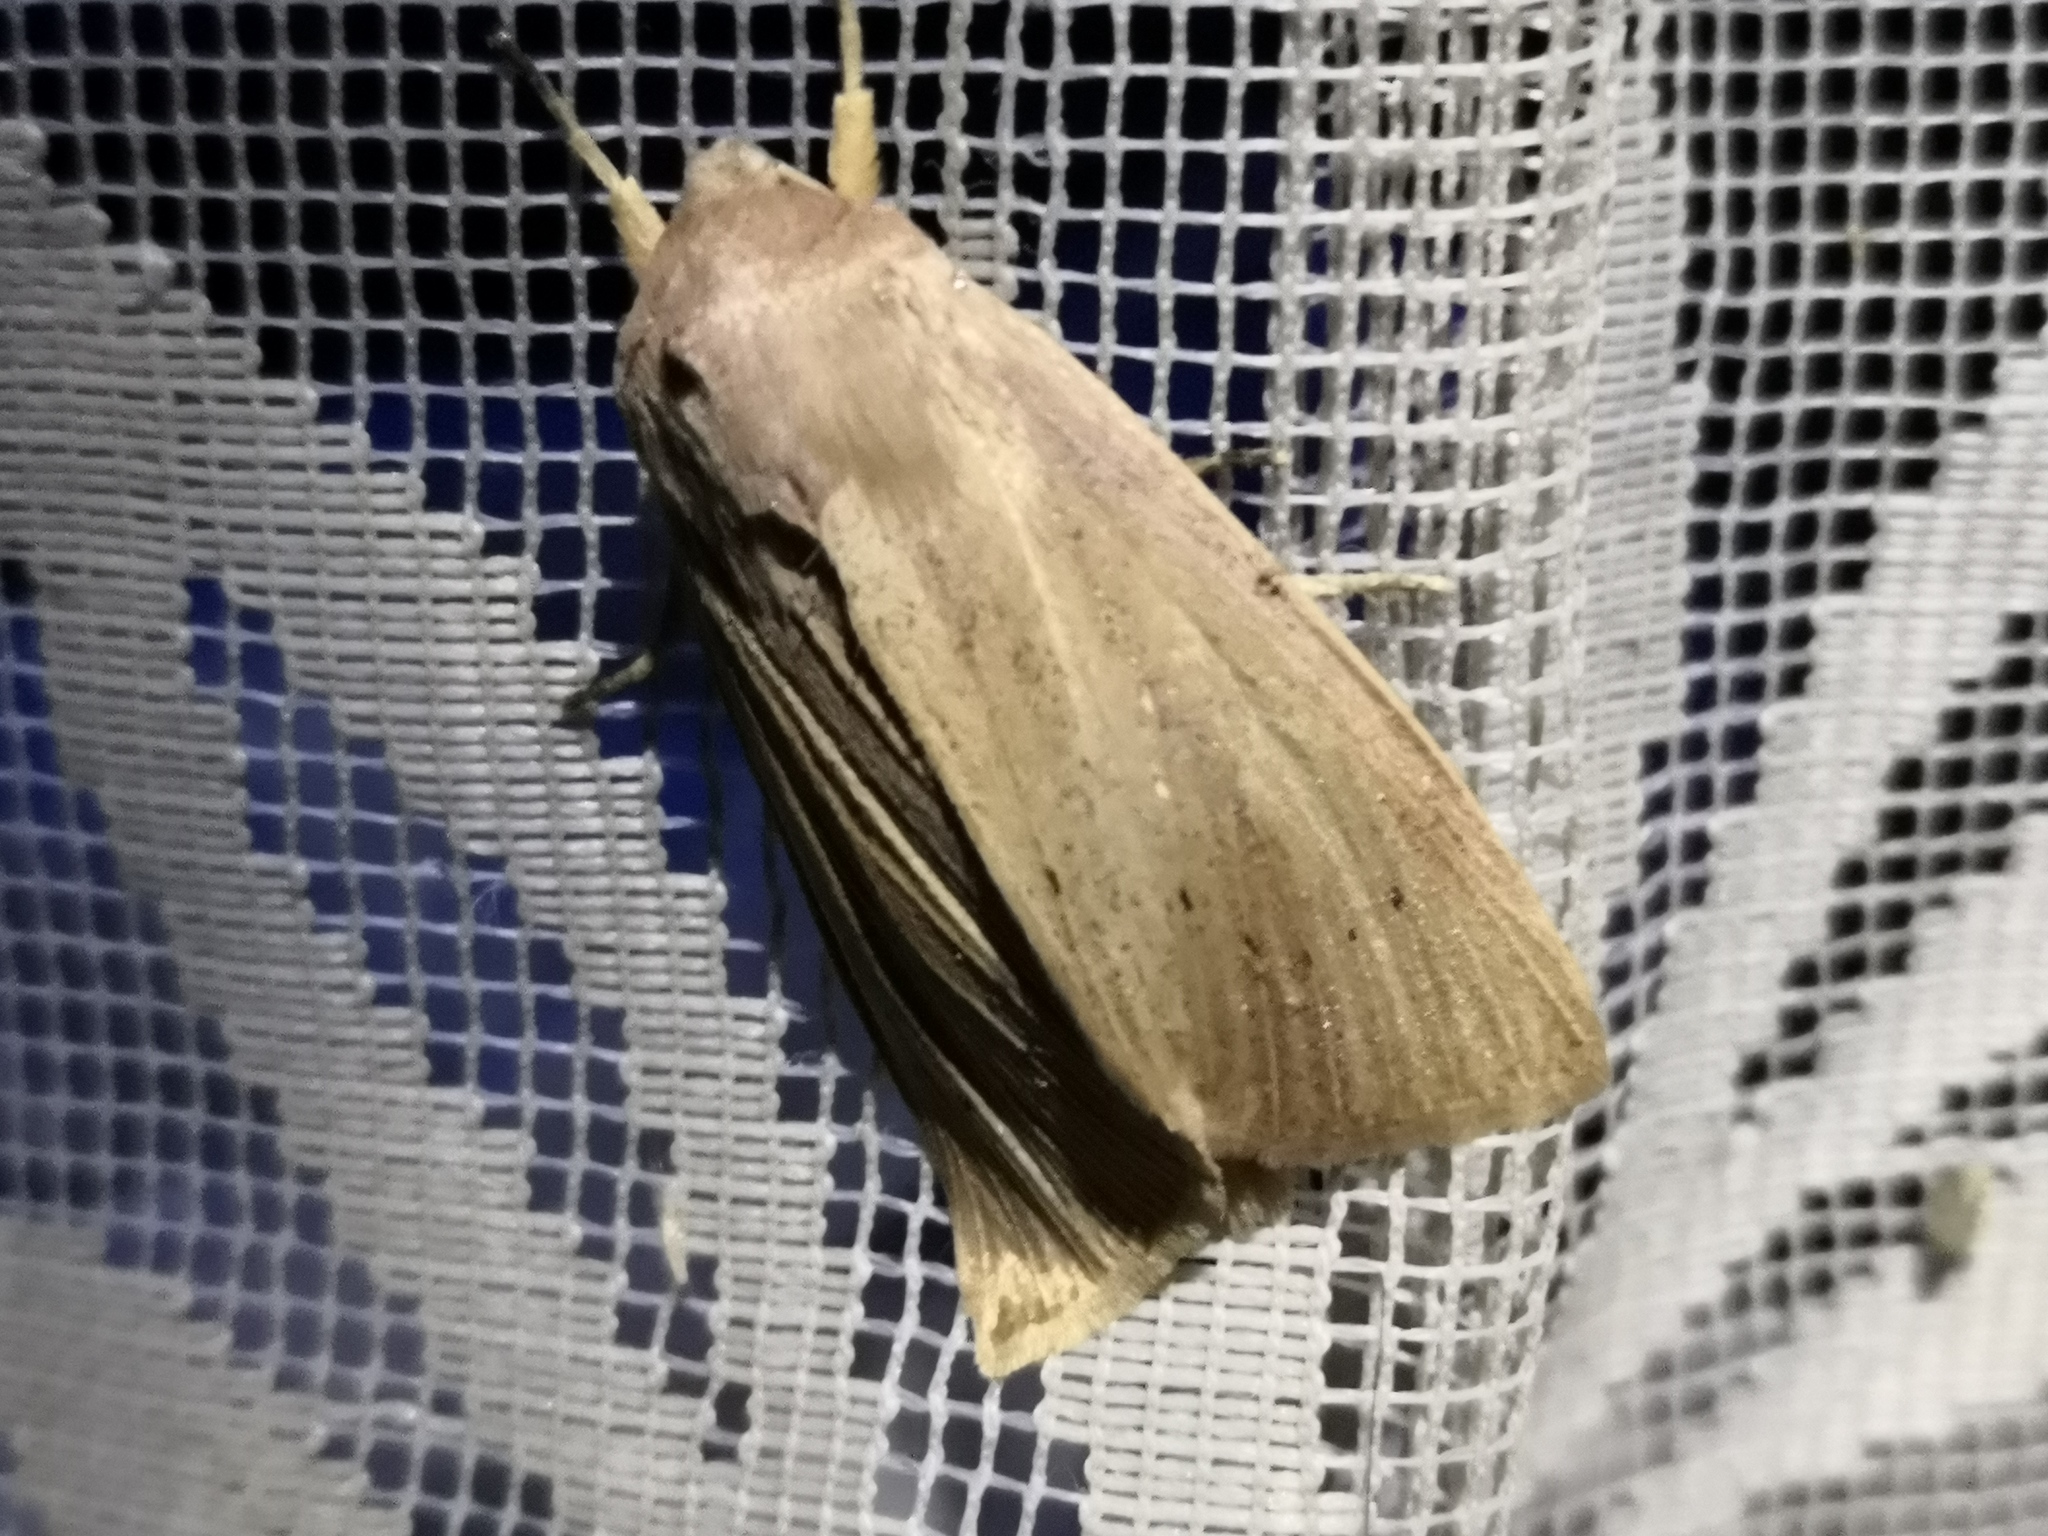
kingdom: Animalia
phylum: Arthropoda
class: Insecta
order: Lepidoptera
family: Noctuidae
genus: Rhizedra
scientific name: Rhizedra lutosa
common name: Large wainscot
